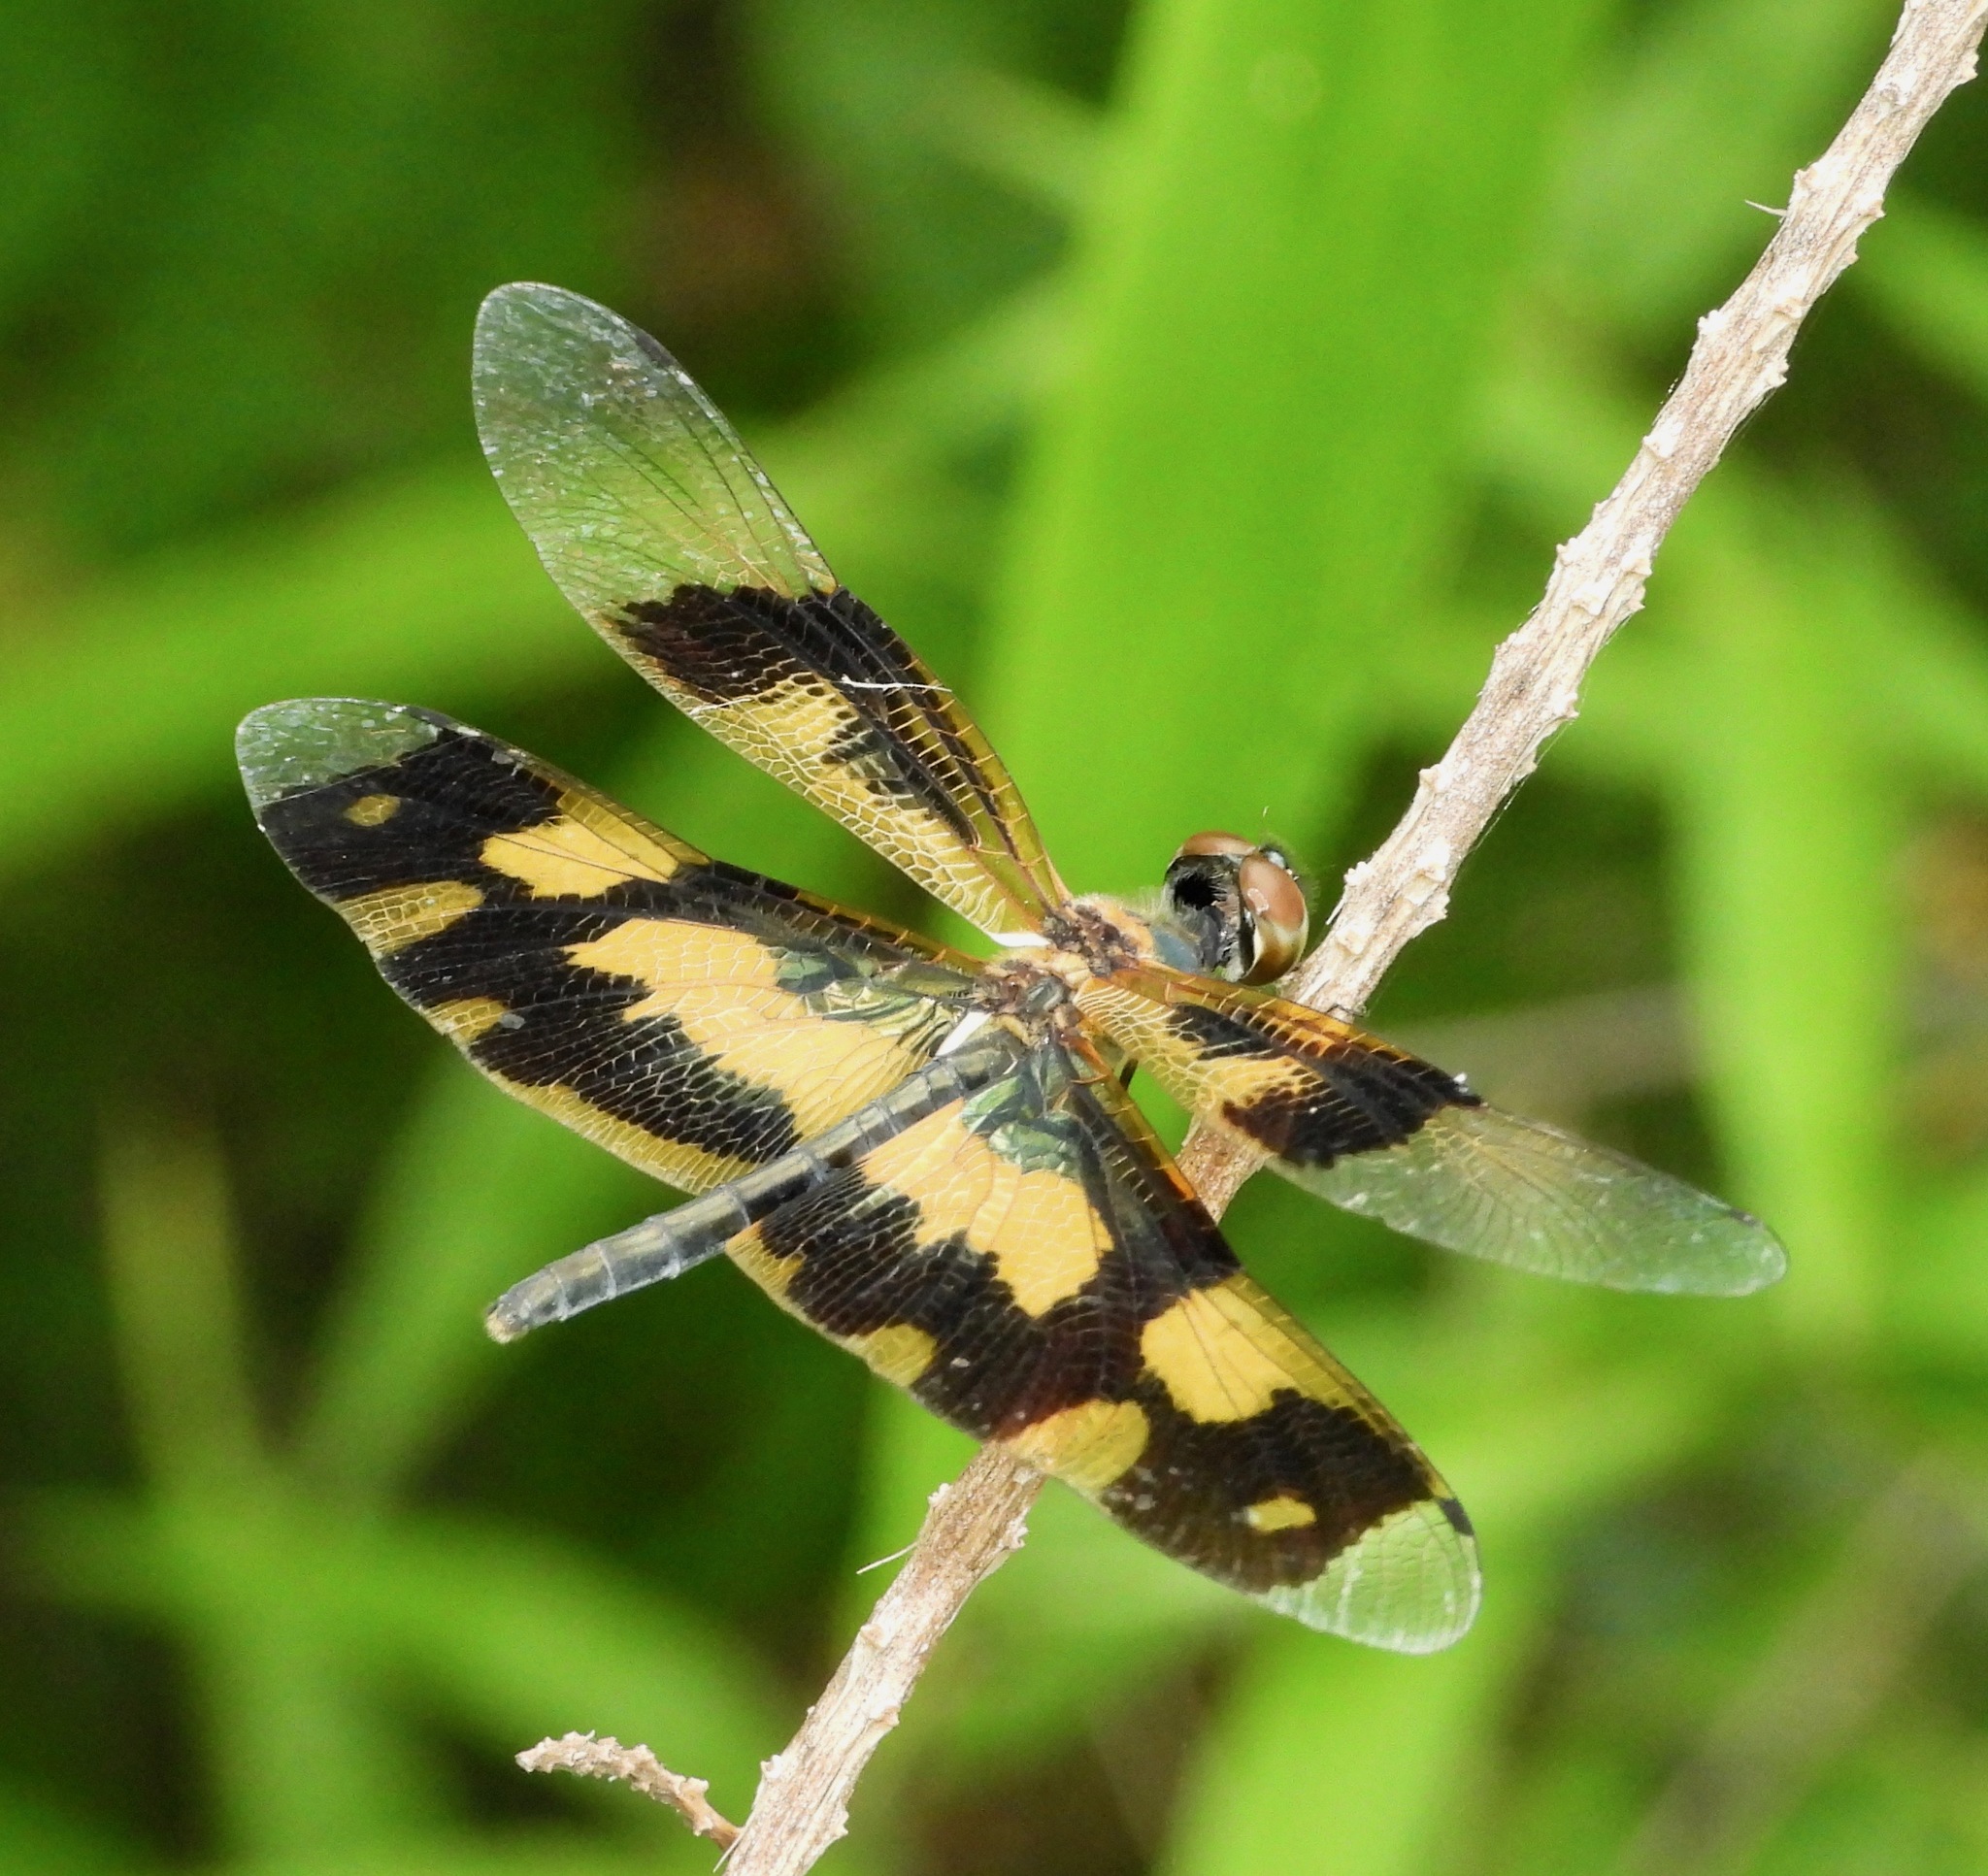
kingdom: Animalia
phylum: Arthropoda
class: Insecta
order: Odonata
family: Libellulidae
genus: Rhyothemis
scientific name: Rhyothemis variegata
